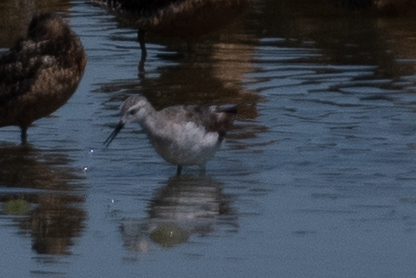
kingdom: Animalia
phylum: Chordata
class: Aves
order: Charadriiformes
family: Scolopacidae
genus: Phalaropus
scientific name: Phalaropus tricolor
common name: Wilson's phalarope
